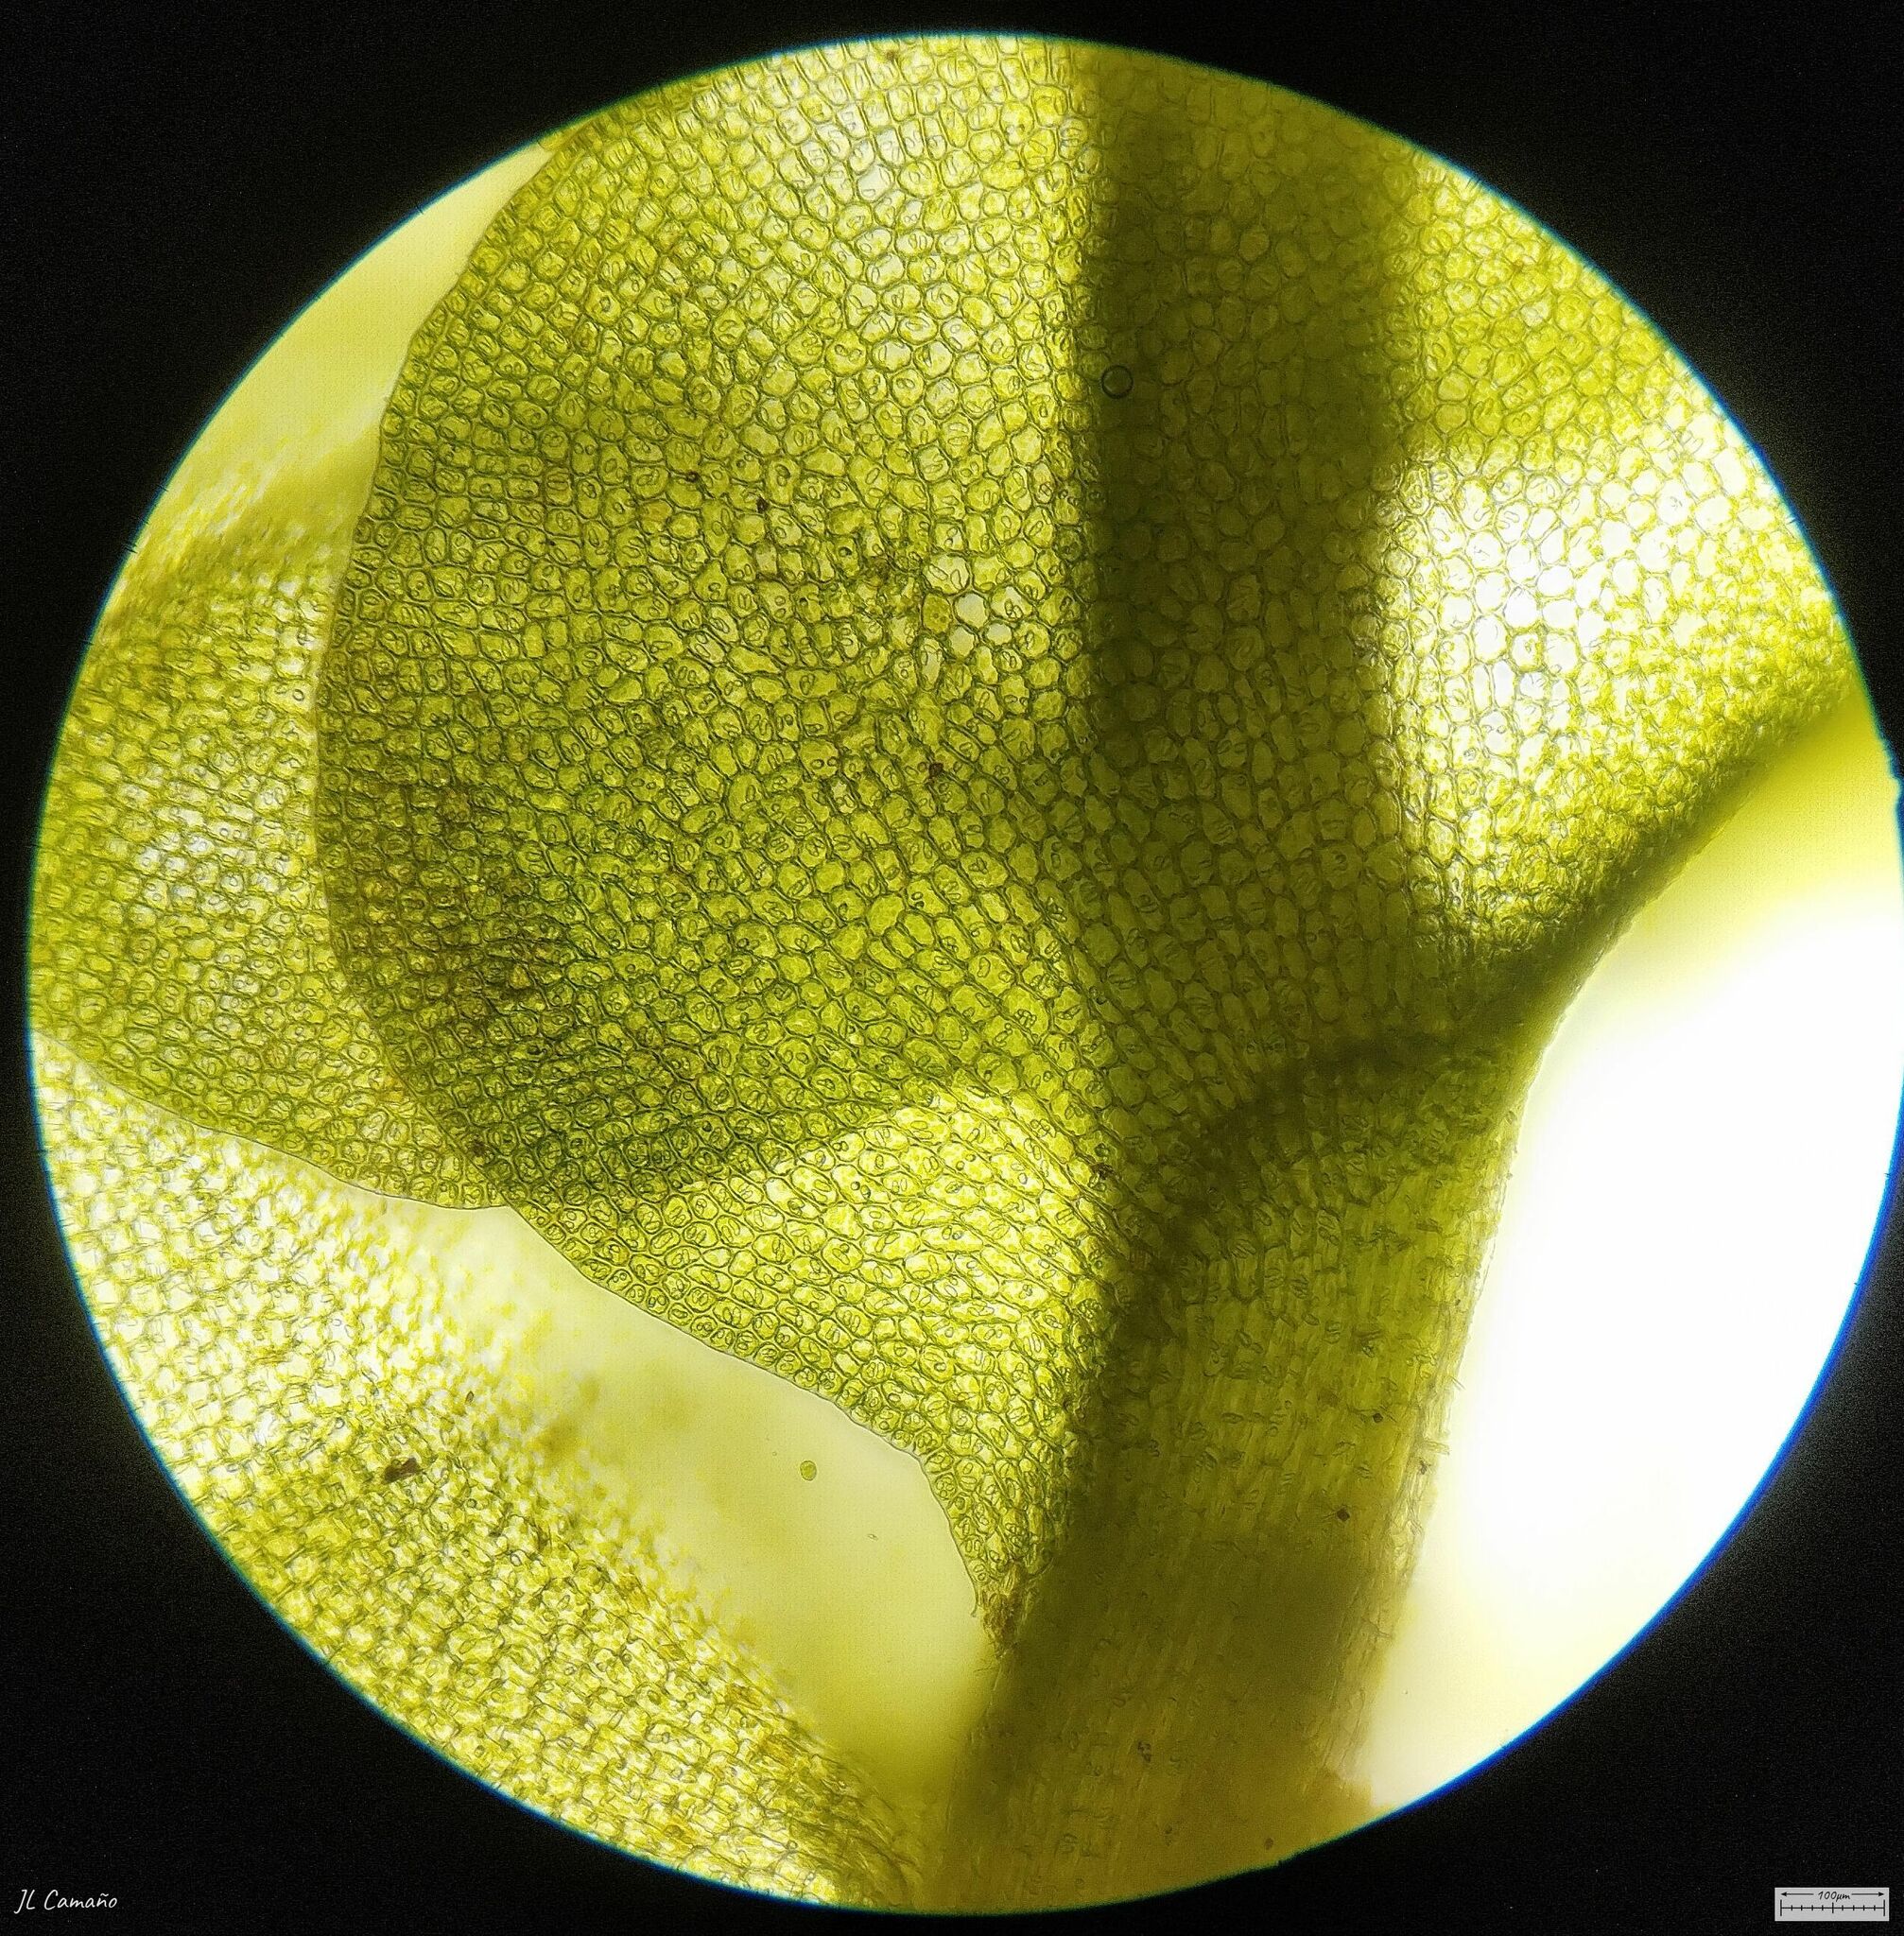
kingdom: Plantae
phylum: Marchantiophyta
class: Jungermanniopsida
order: Jungermanniales
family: Gymnomitriaceae
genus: Nardia
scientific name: Nardia compressa
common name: Compressed flapwort
